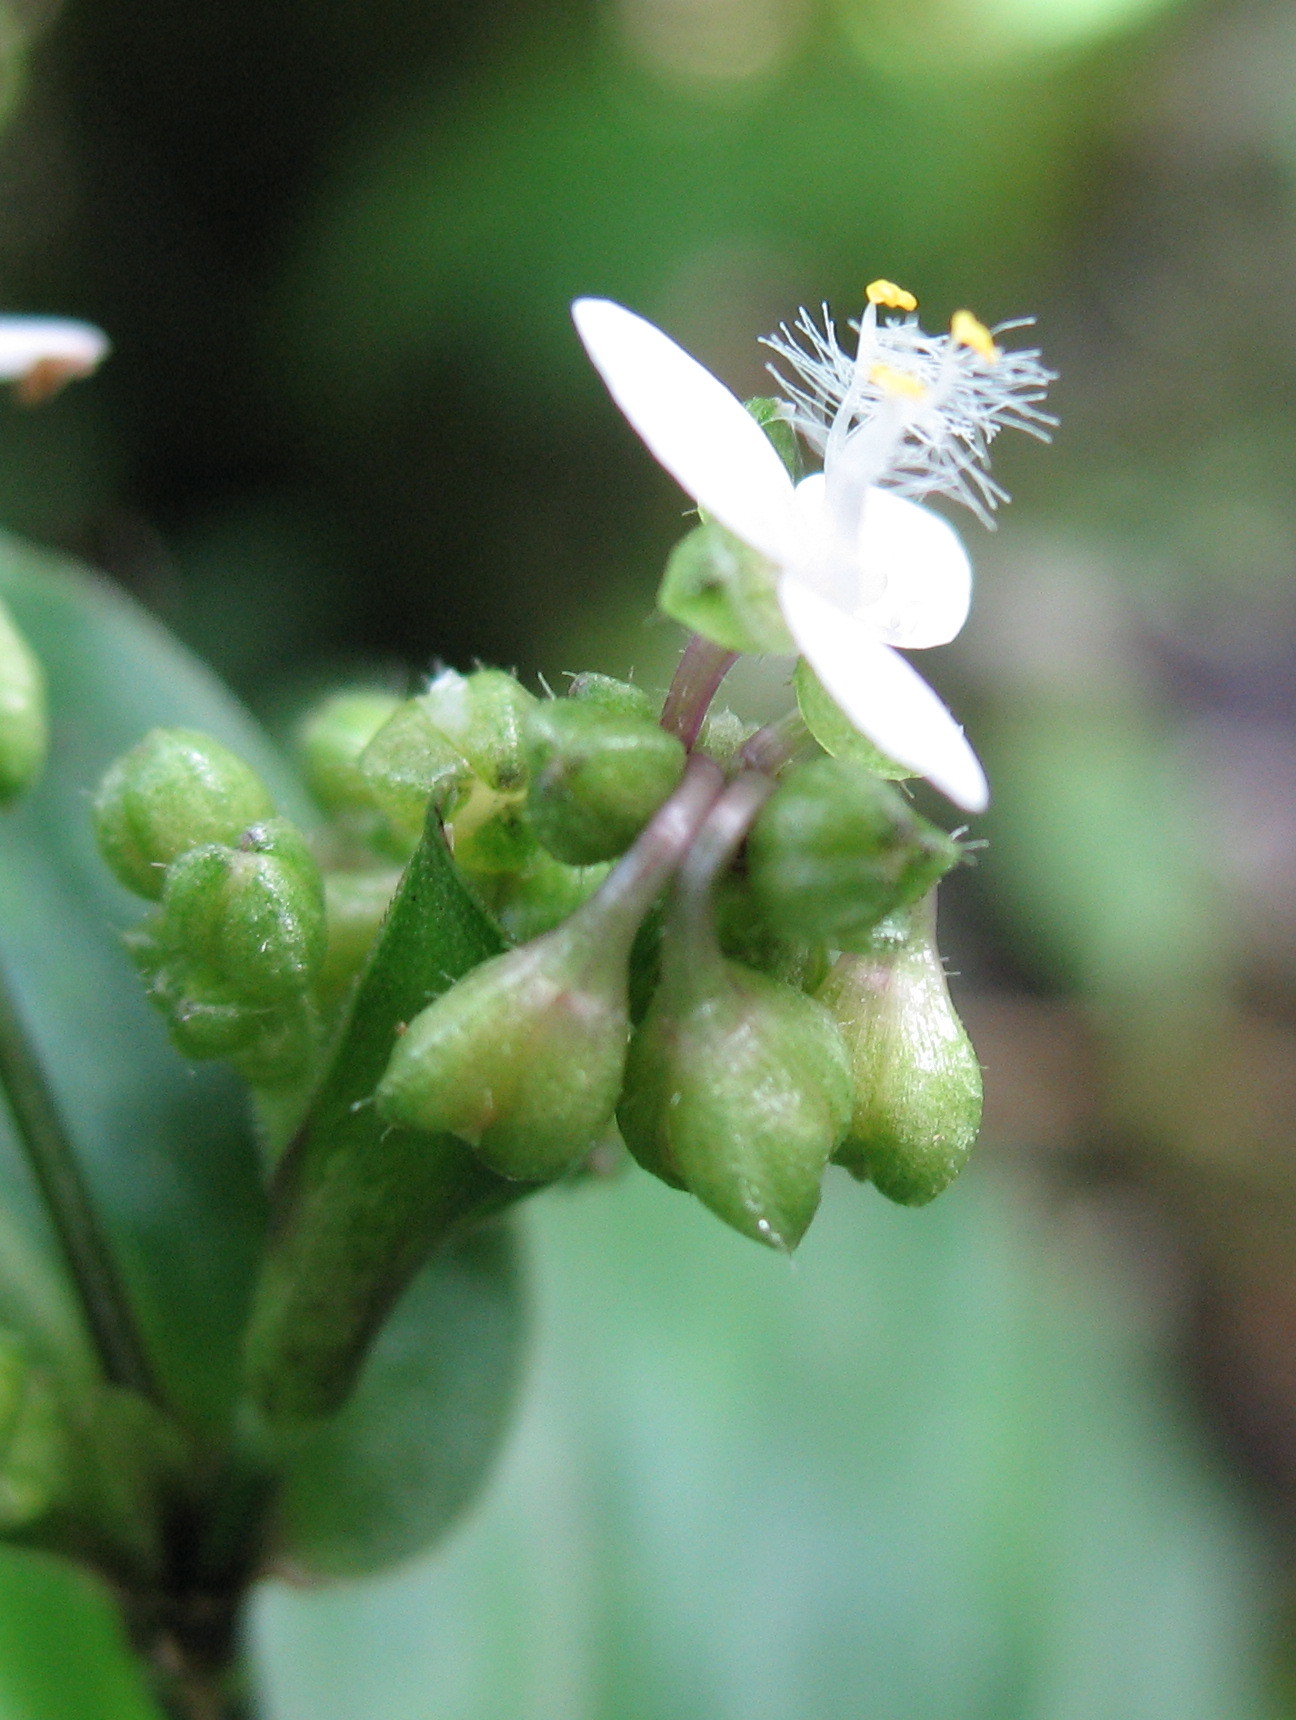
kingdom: Plantae
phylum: Tracheophyta
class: Liliopsida
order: Commelinales
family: Commelinaceae
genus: Callisia
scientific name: Callisia serrulata
